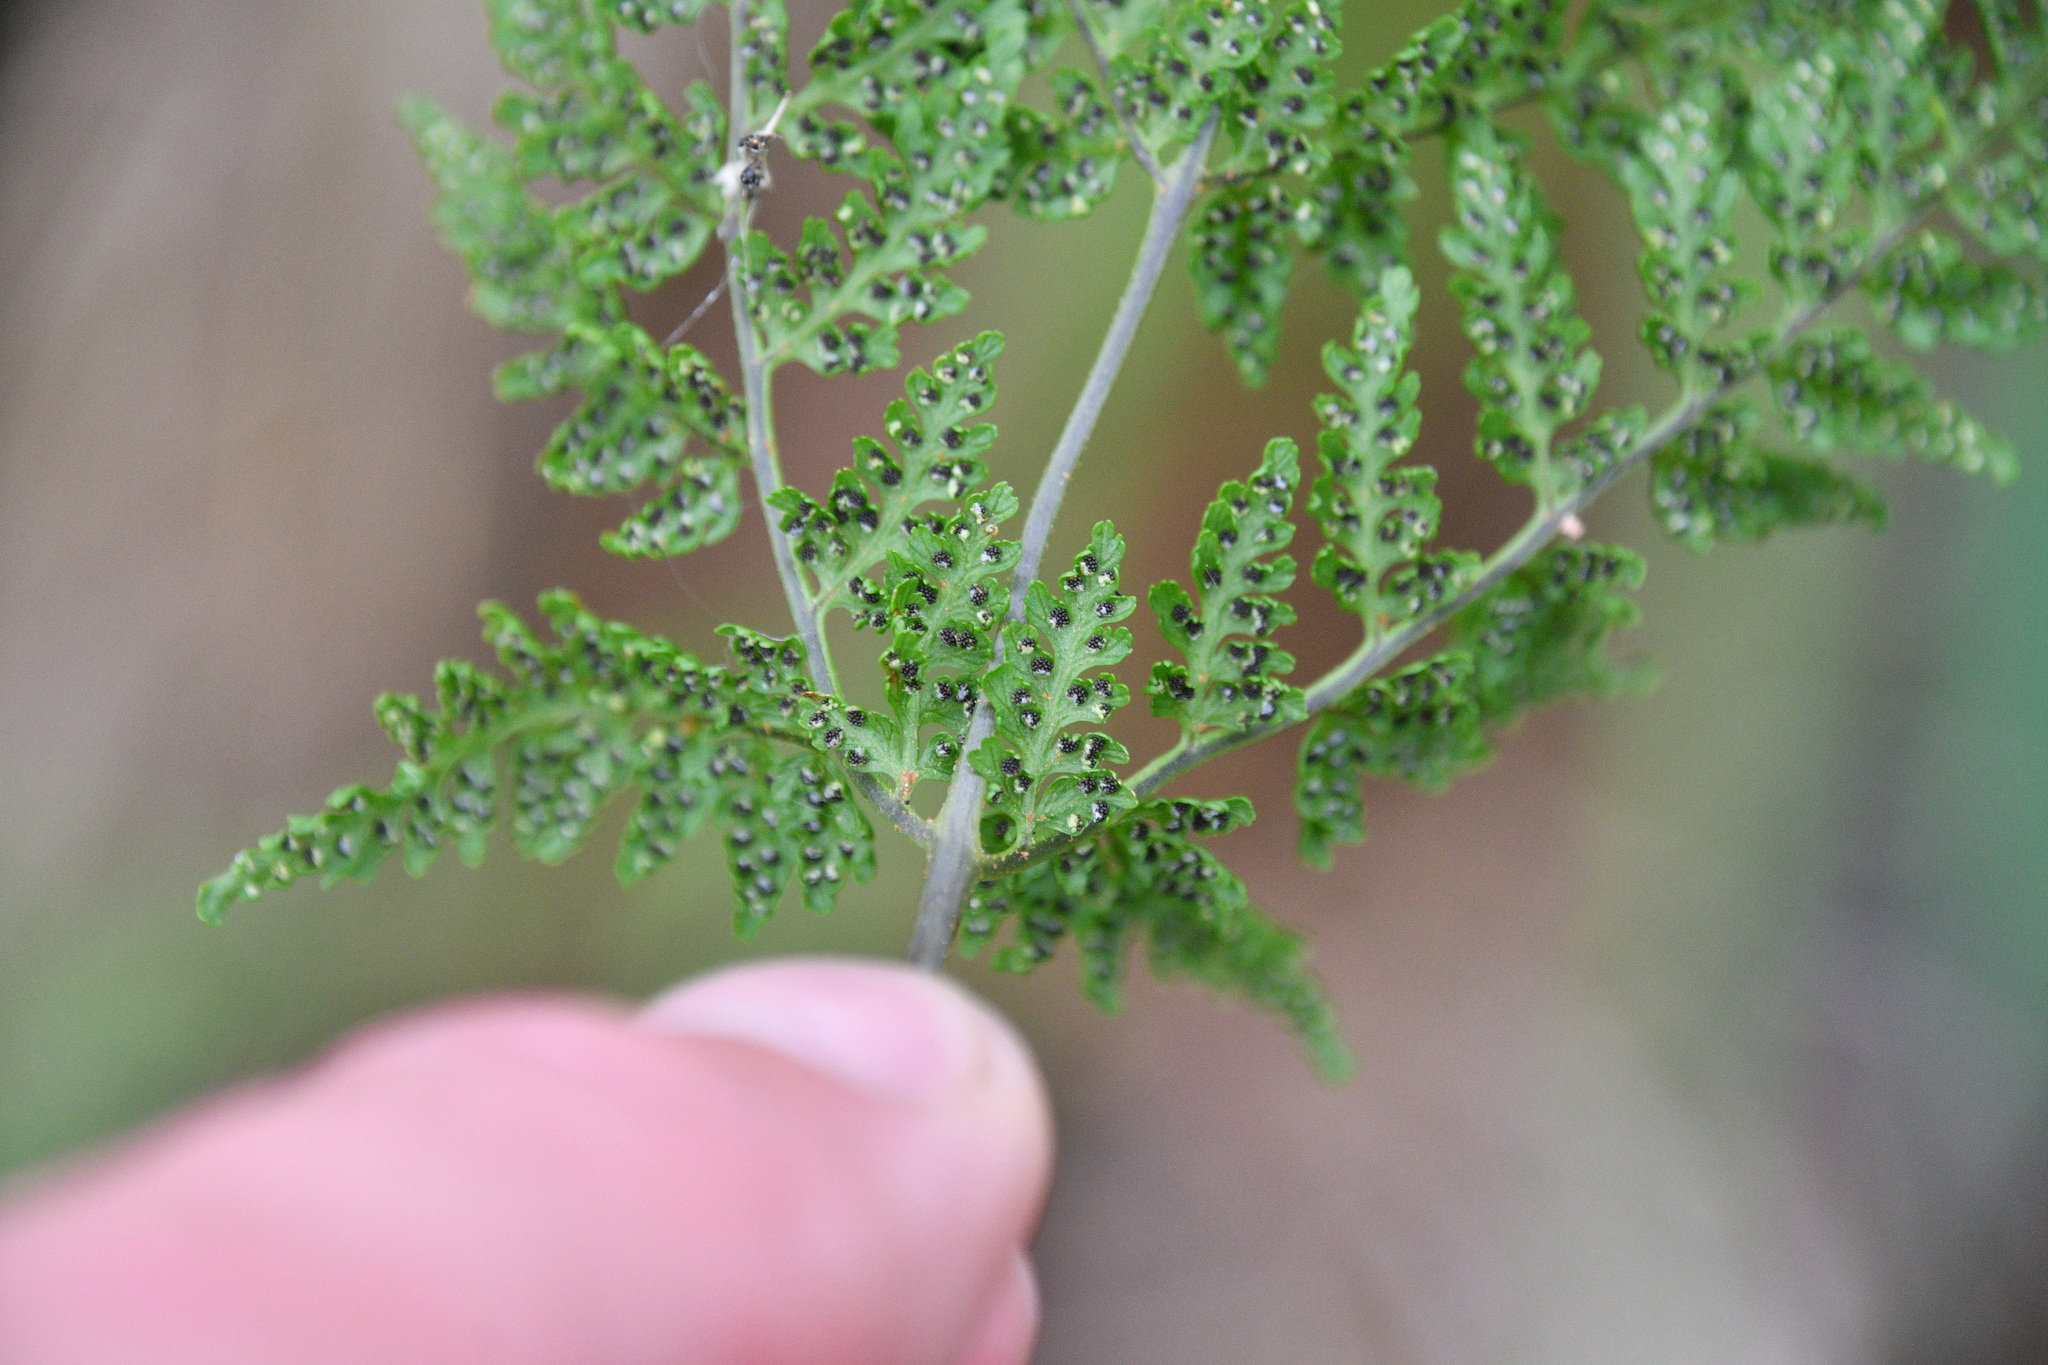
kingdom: Plantae
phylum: Tracheophyta
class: Polypodiopsida
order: Polypodiales
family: Cystopteridaceae
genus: Cystopteris
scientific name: Cystopteris montana
